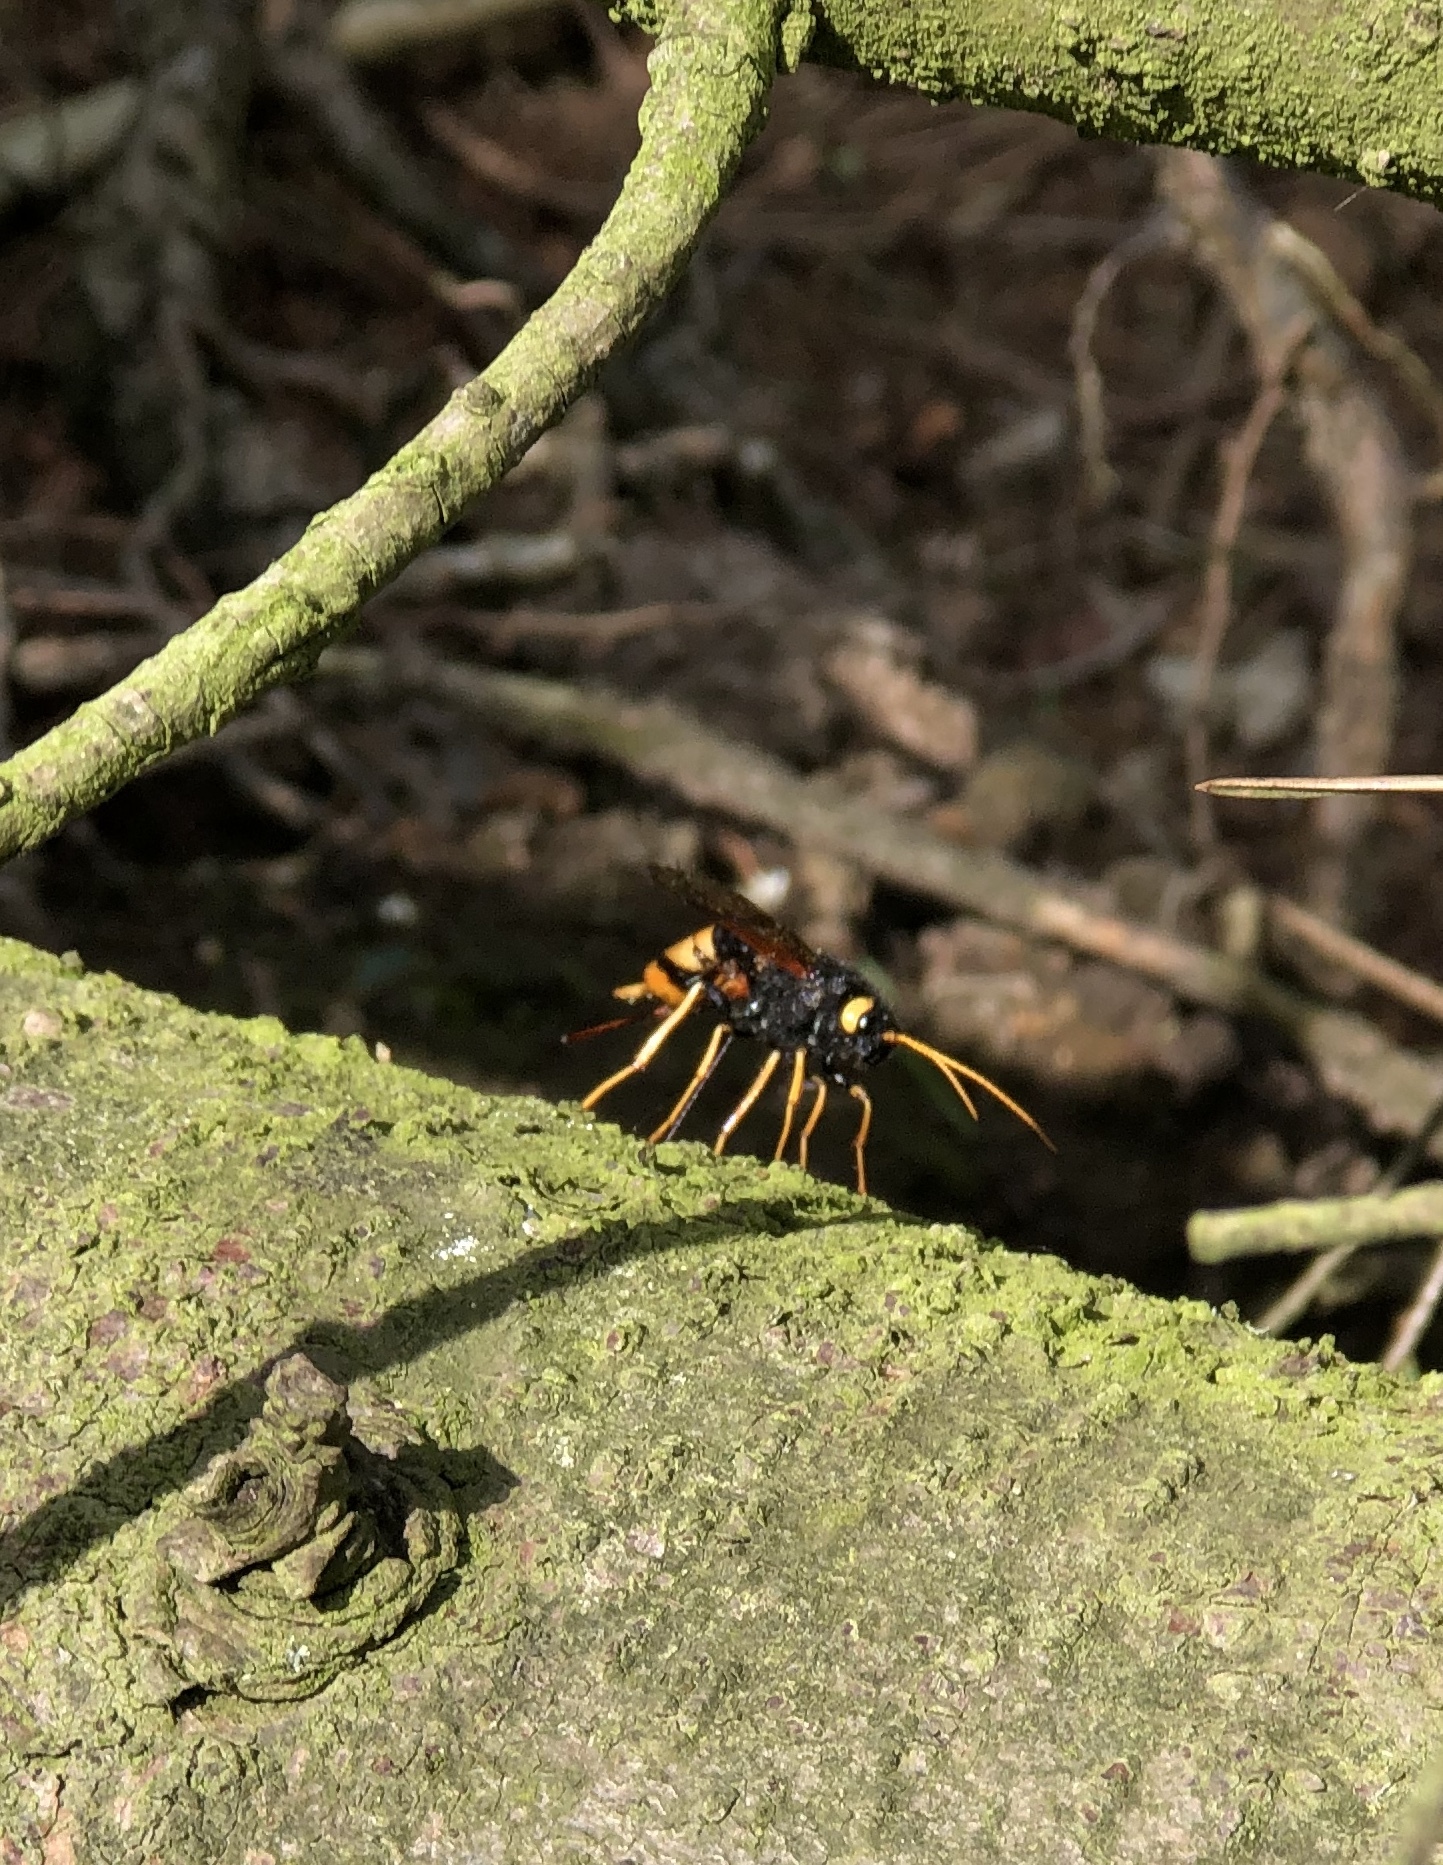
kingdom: Animalia
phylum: Arthropoda
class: Insecta
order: Hymenoptera
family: Siricidae
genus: Urocerus
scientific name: Urocerus gigas
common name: Giant woodwasp
